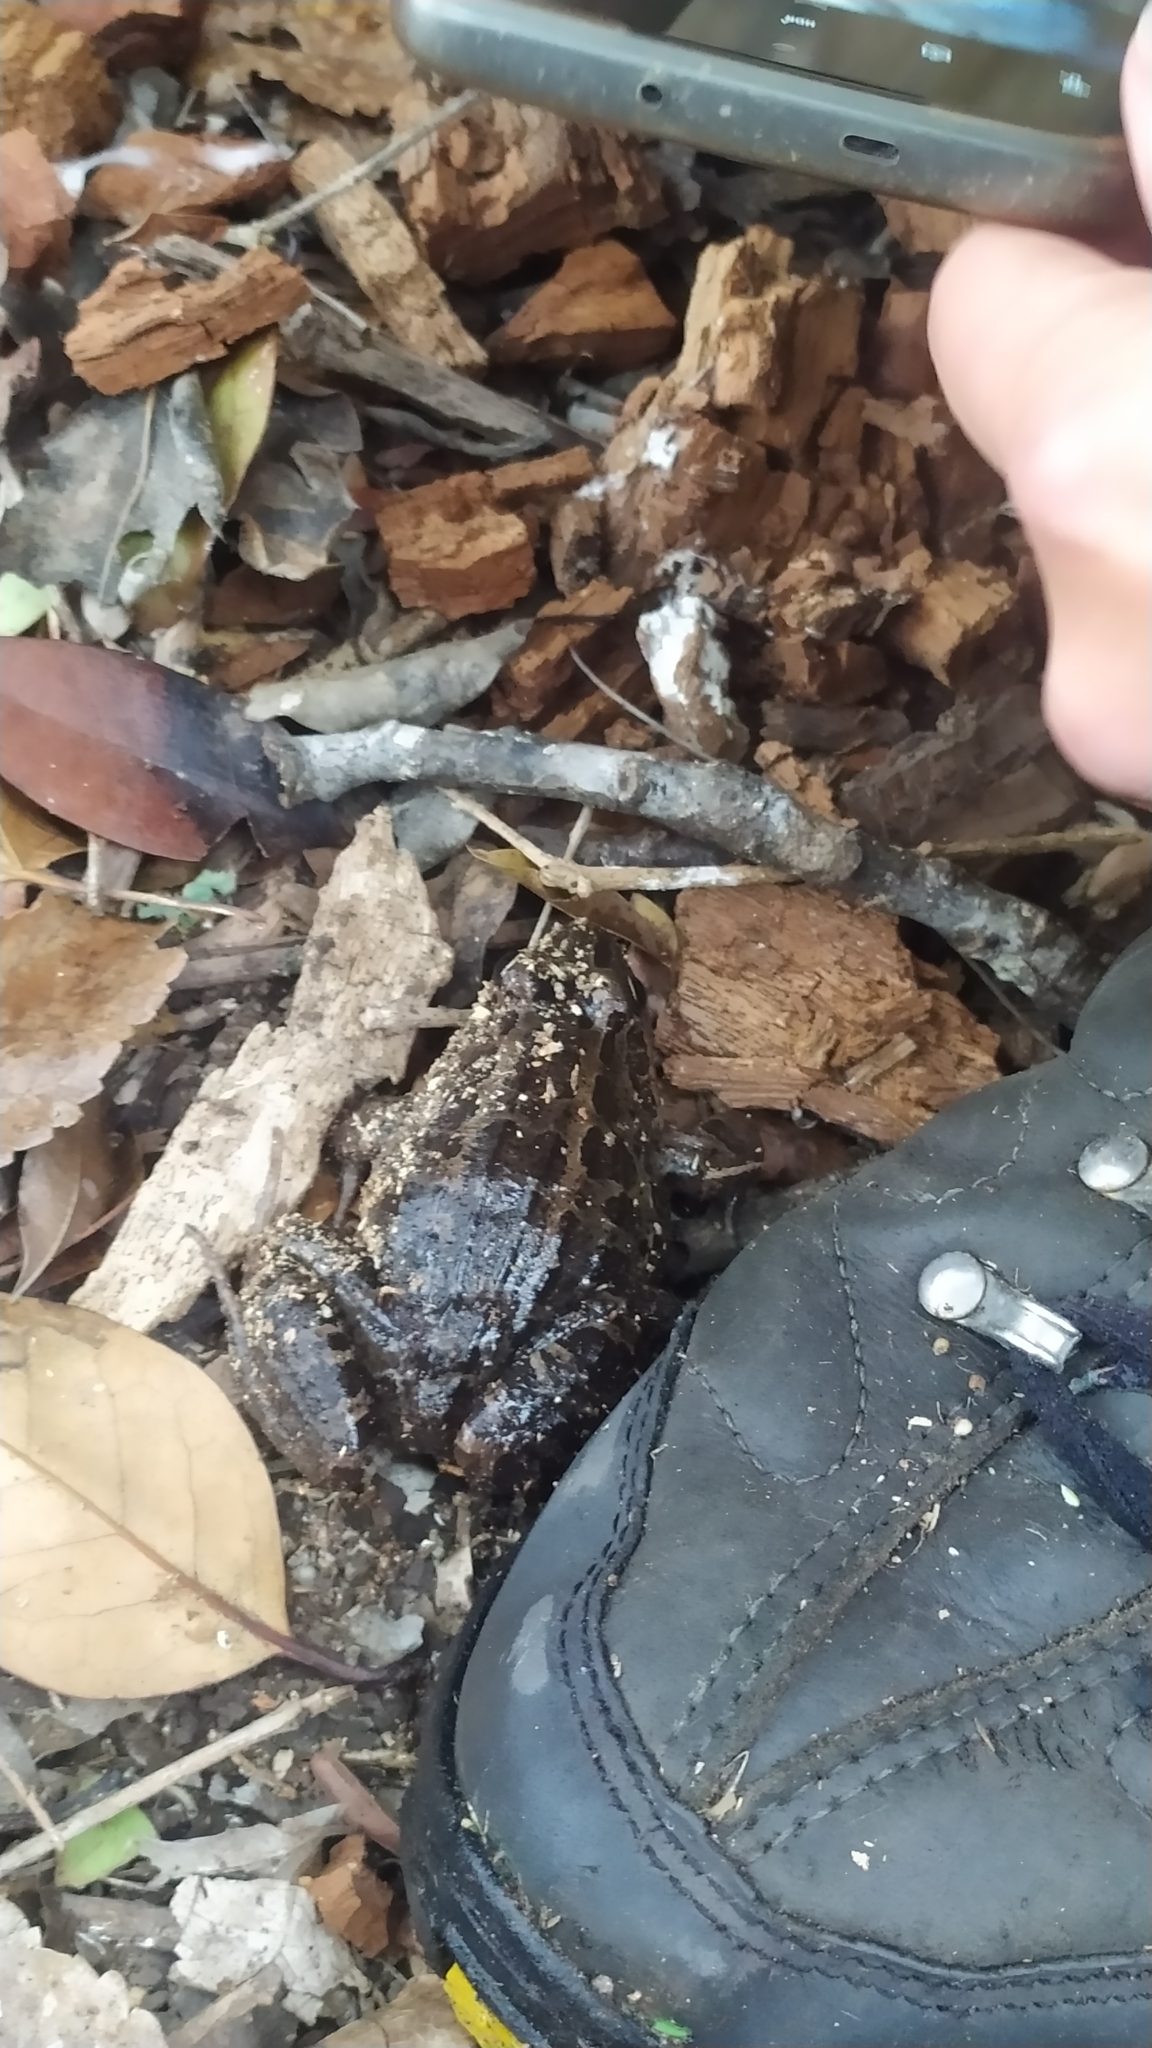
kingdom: Animalia
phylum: Chordata
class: Amphibia
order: Anura
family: Leptodactylidae
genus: Leptodactylus
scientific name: Leptodactylus luctator
